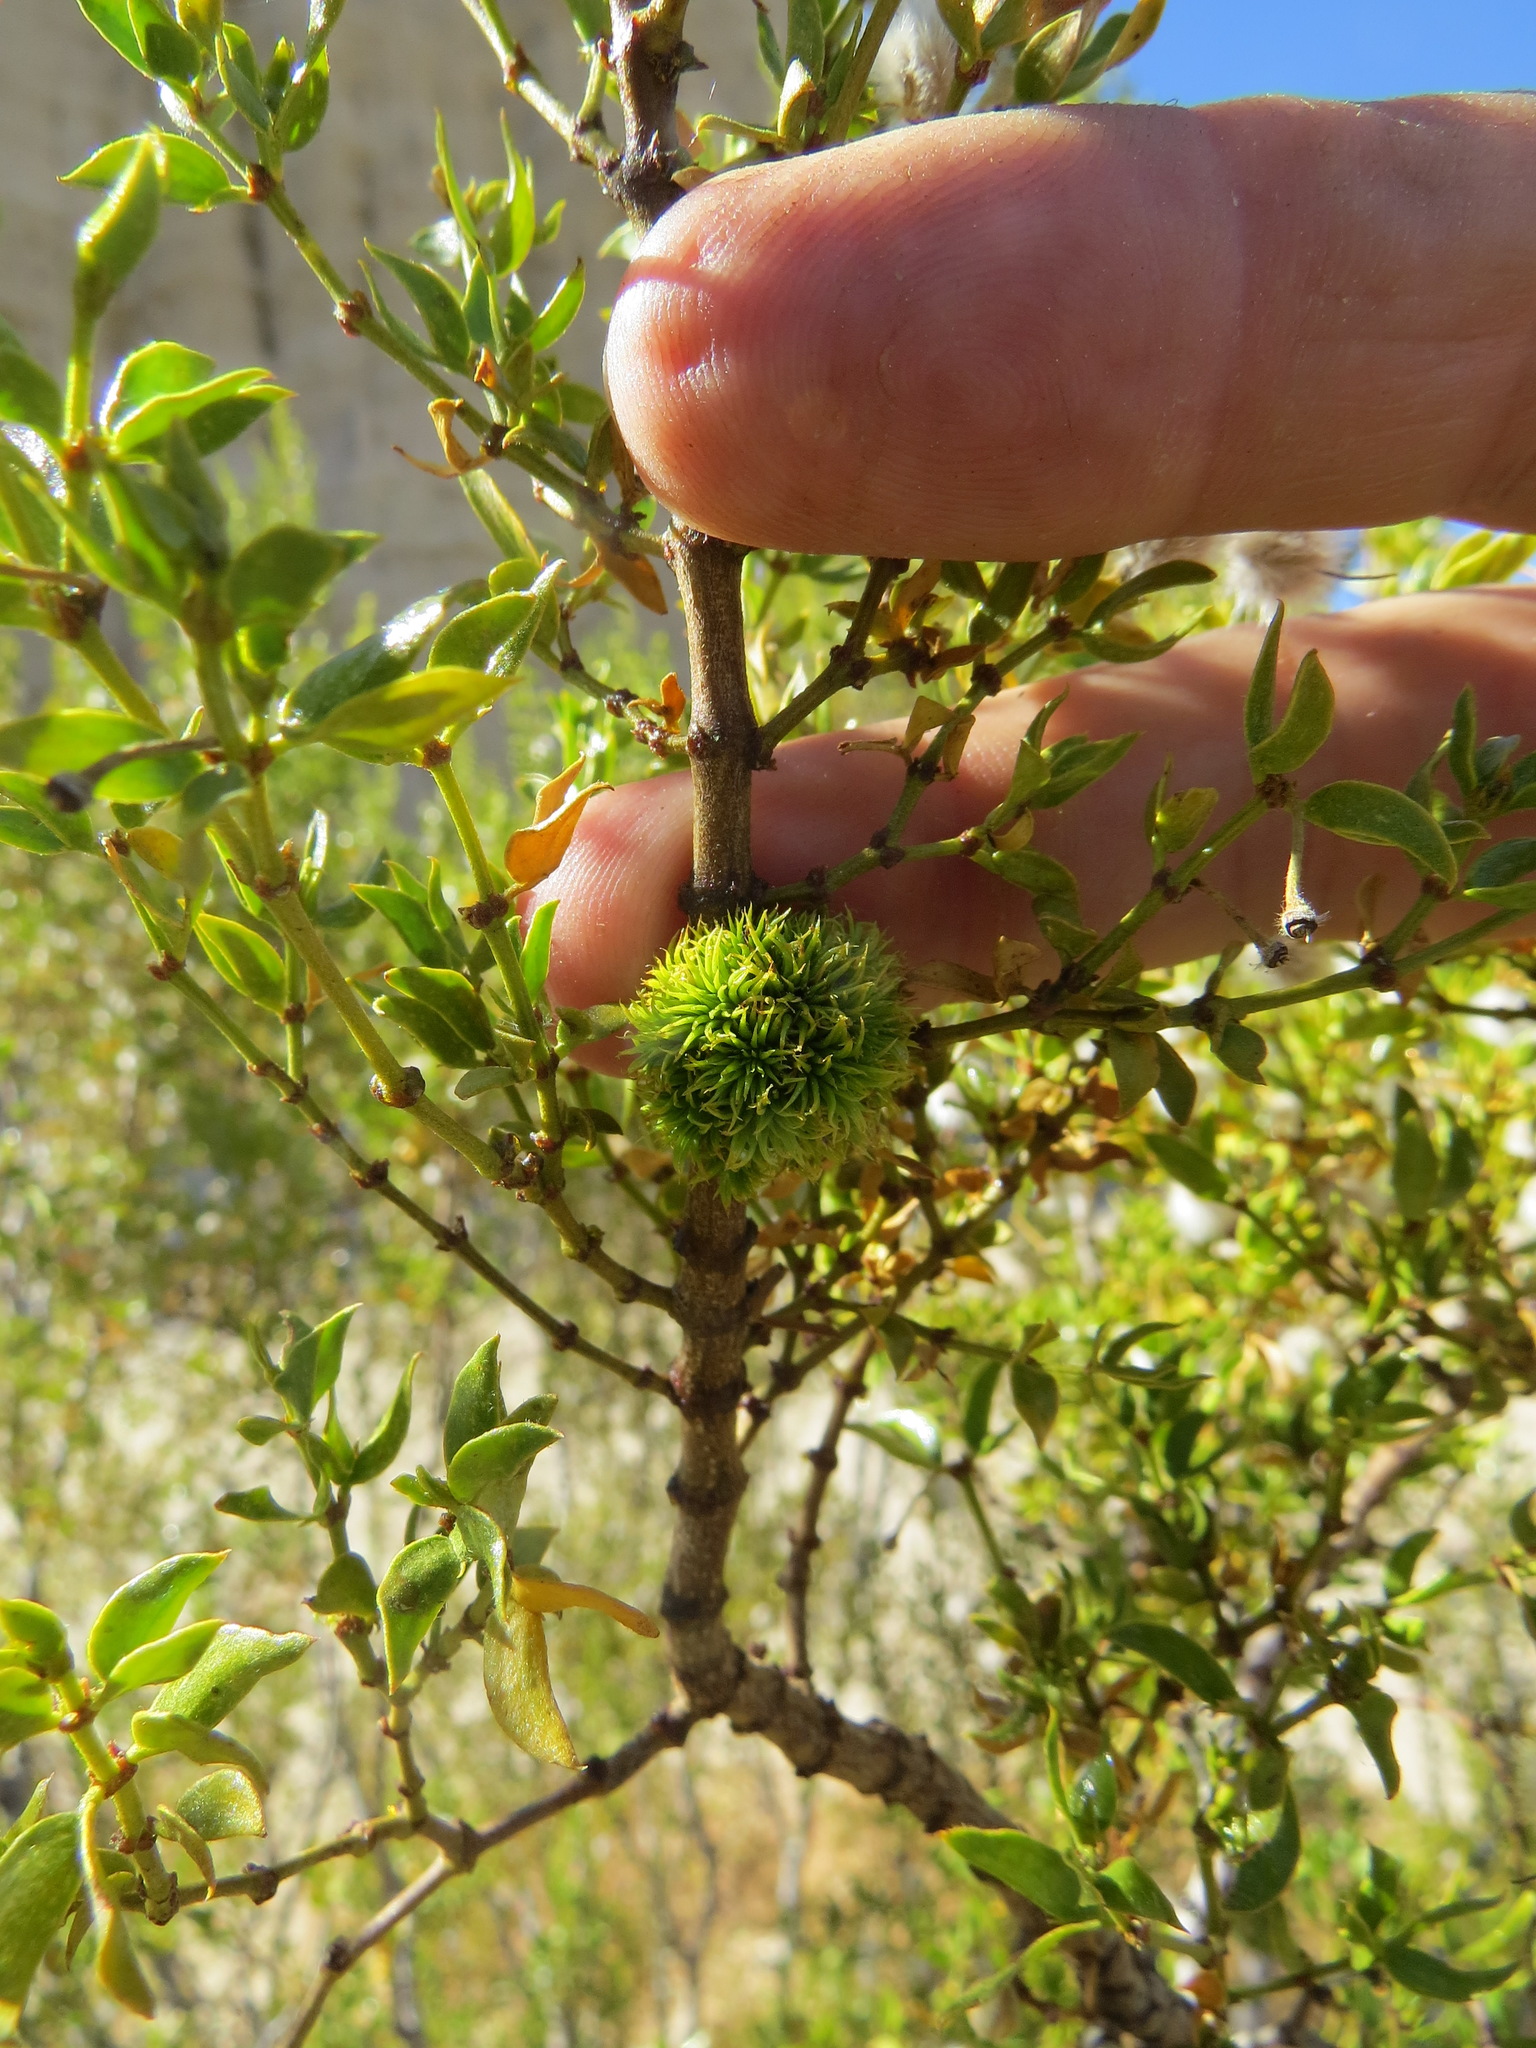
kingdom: Animalia
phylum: Arthropoda
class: Insecta
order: Diptera
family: Cecidomyiidae
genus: Asphondylia
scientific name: Asphondylia auripila
